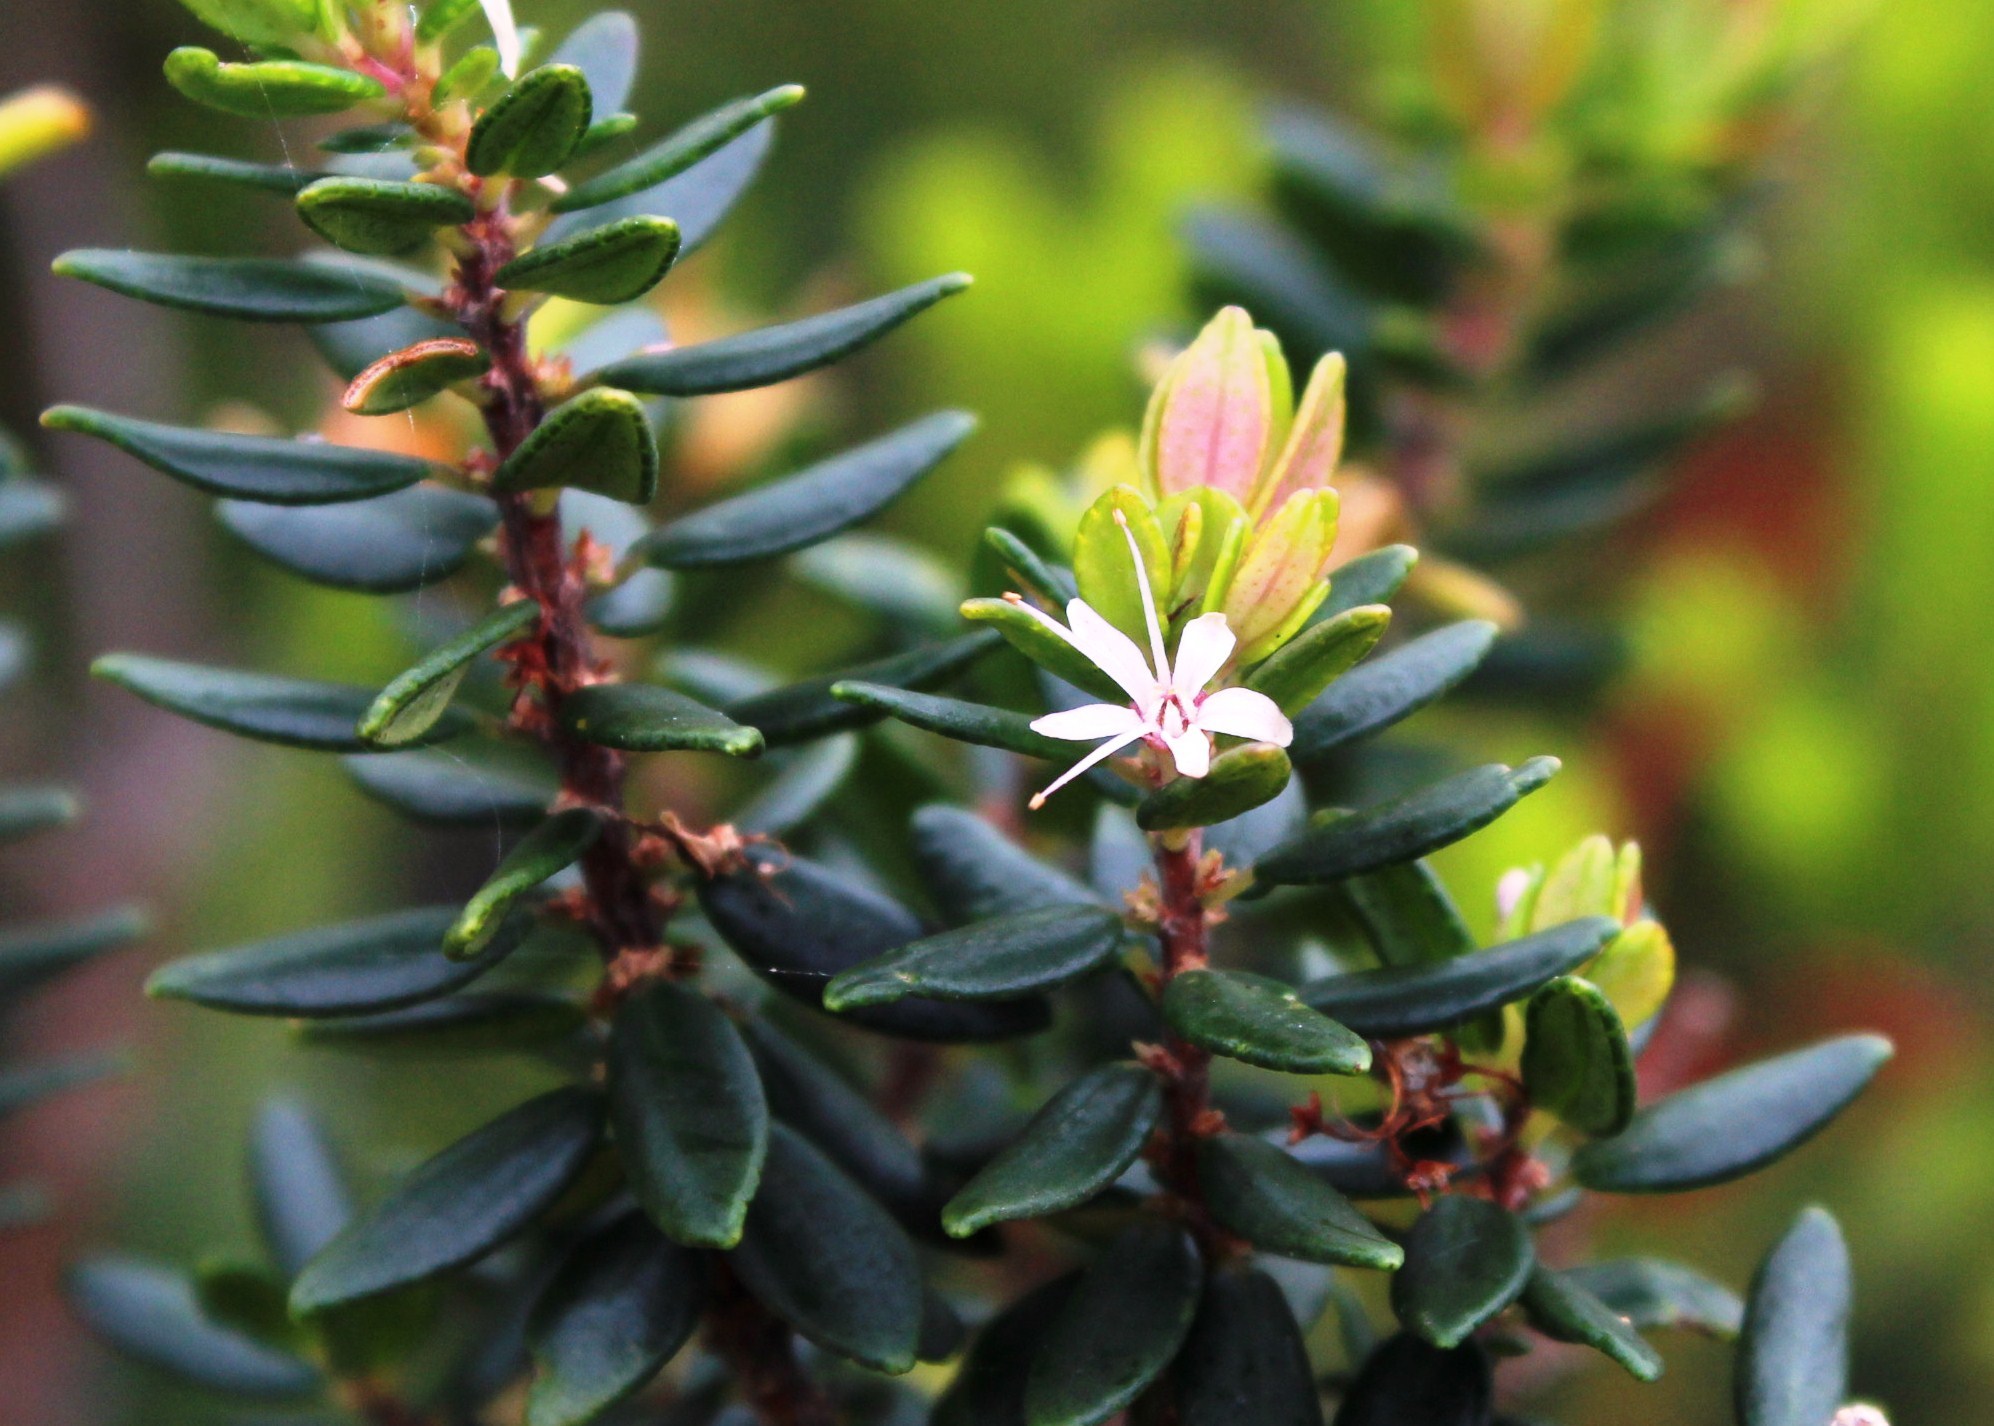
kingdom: Plantae
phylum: Tracheophyta
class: Magnoliopsida
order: Sapindales
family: Rutaceae
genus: Agathosma
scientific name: Agathosma ovata
